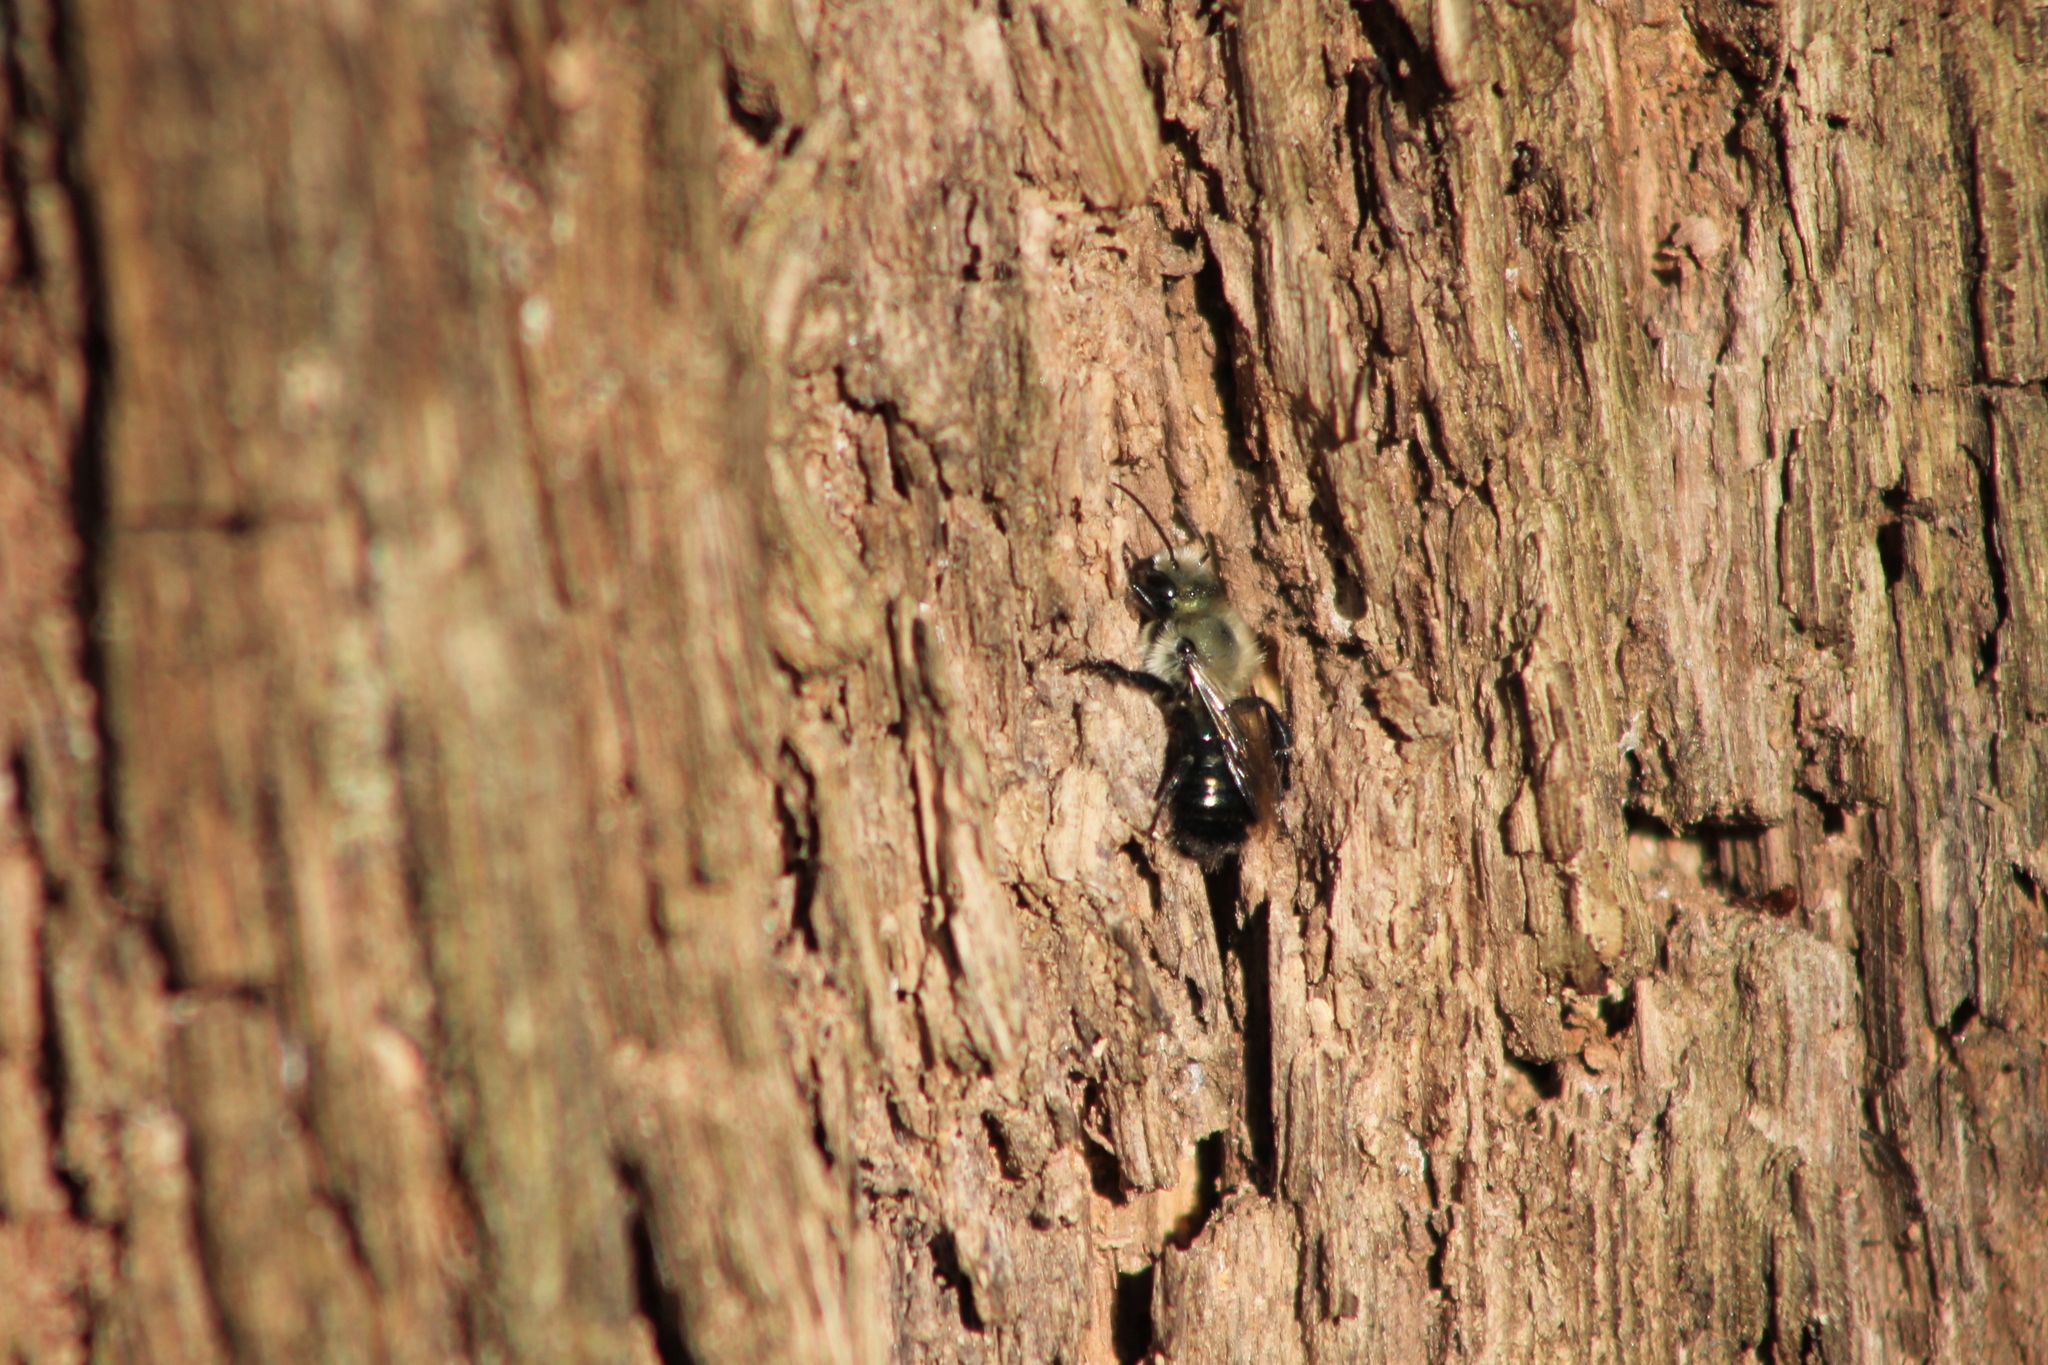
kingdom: Animalia
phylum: Arthropoda
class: Insecta
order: Hymenoptera
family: Megachilidae
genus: Osmia
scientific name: Osmia bucephala
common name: Bufflehead mason bee
